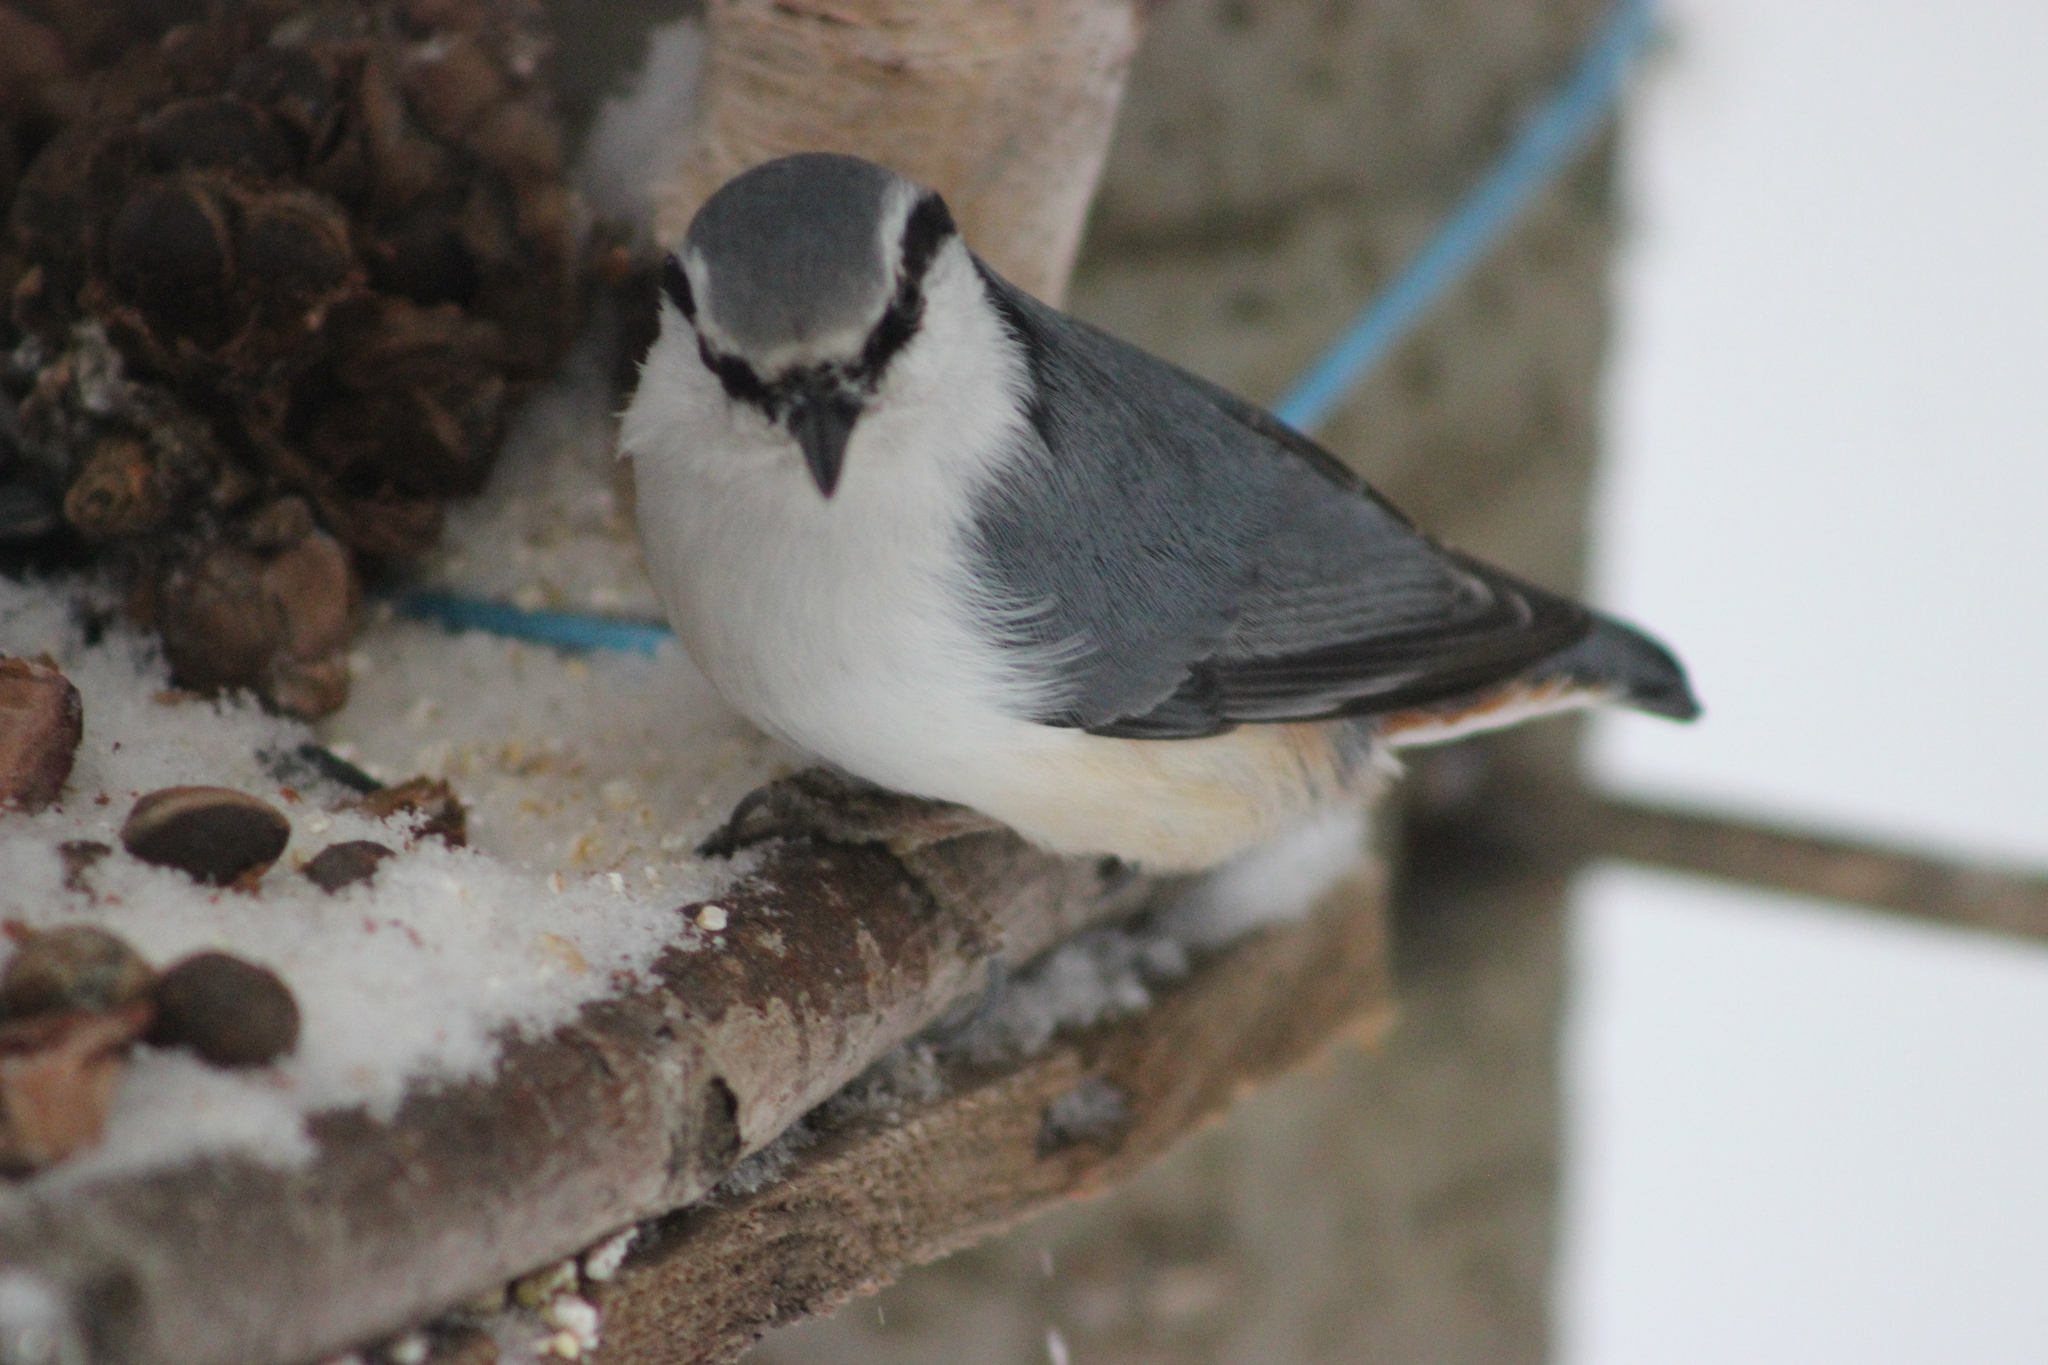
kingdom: Animalia
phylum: Chordata
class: Aves
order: Passeriformes
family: Sittidae
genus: Sitta
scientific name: Sitta europaea
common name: Eurasian nuthatch
